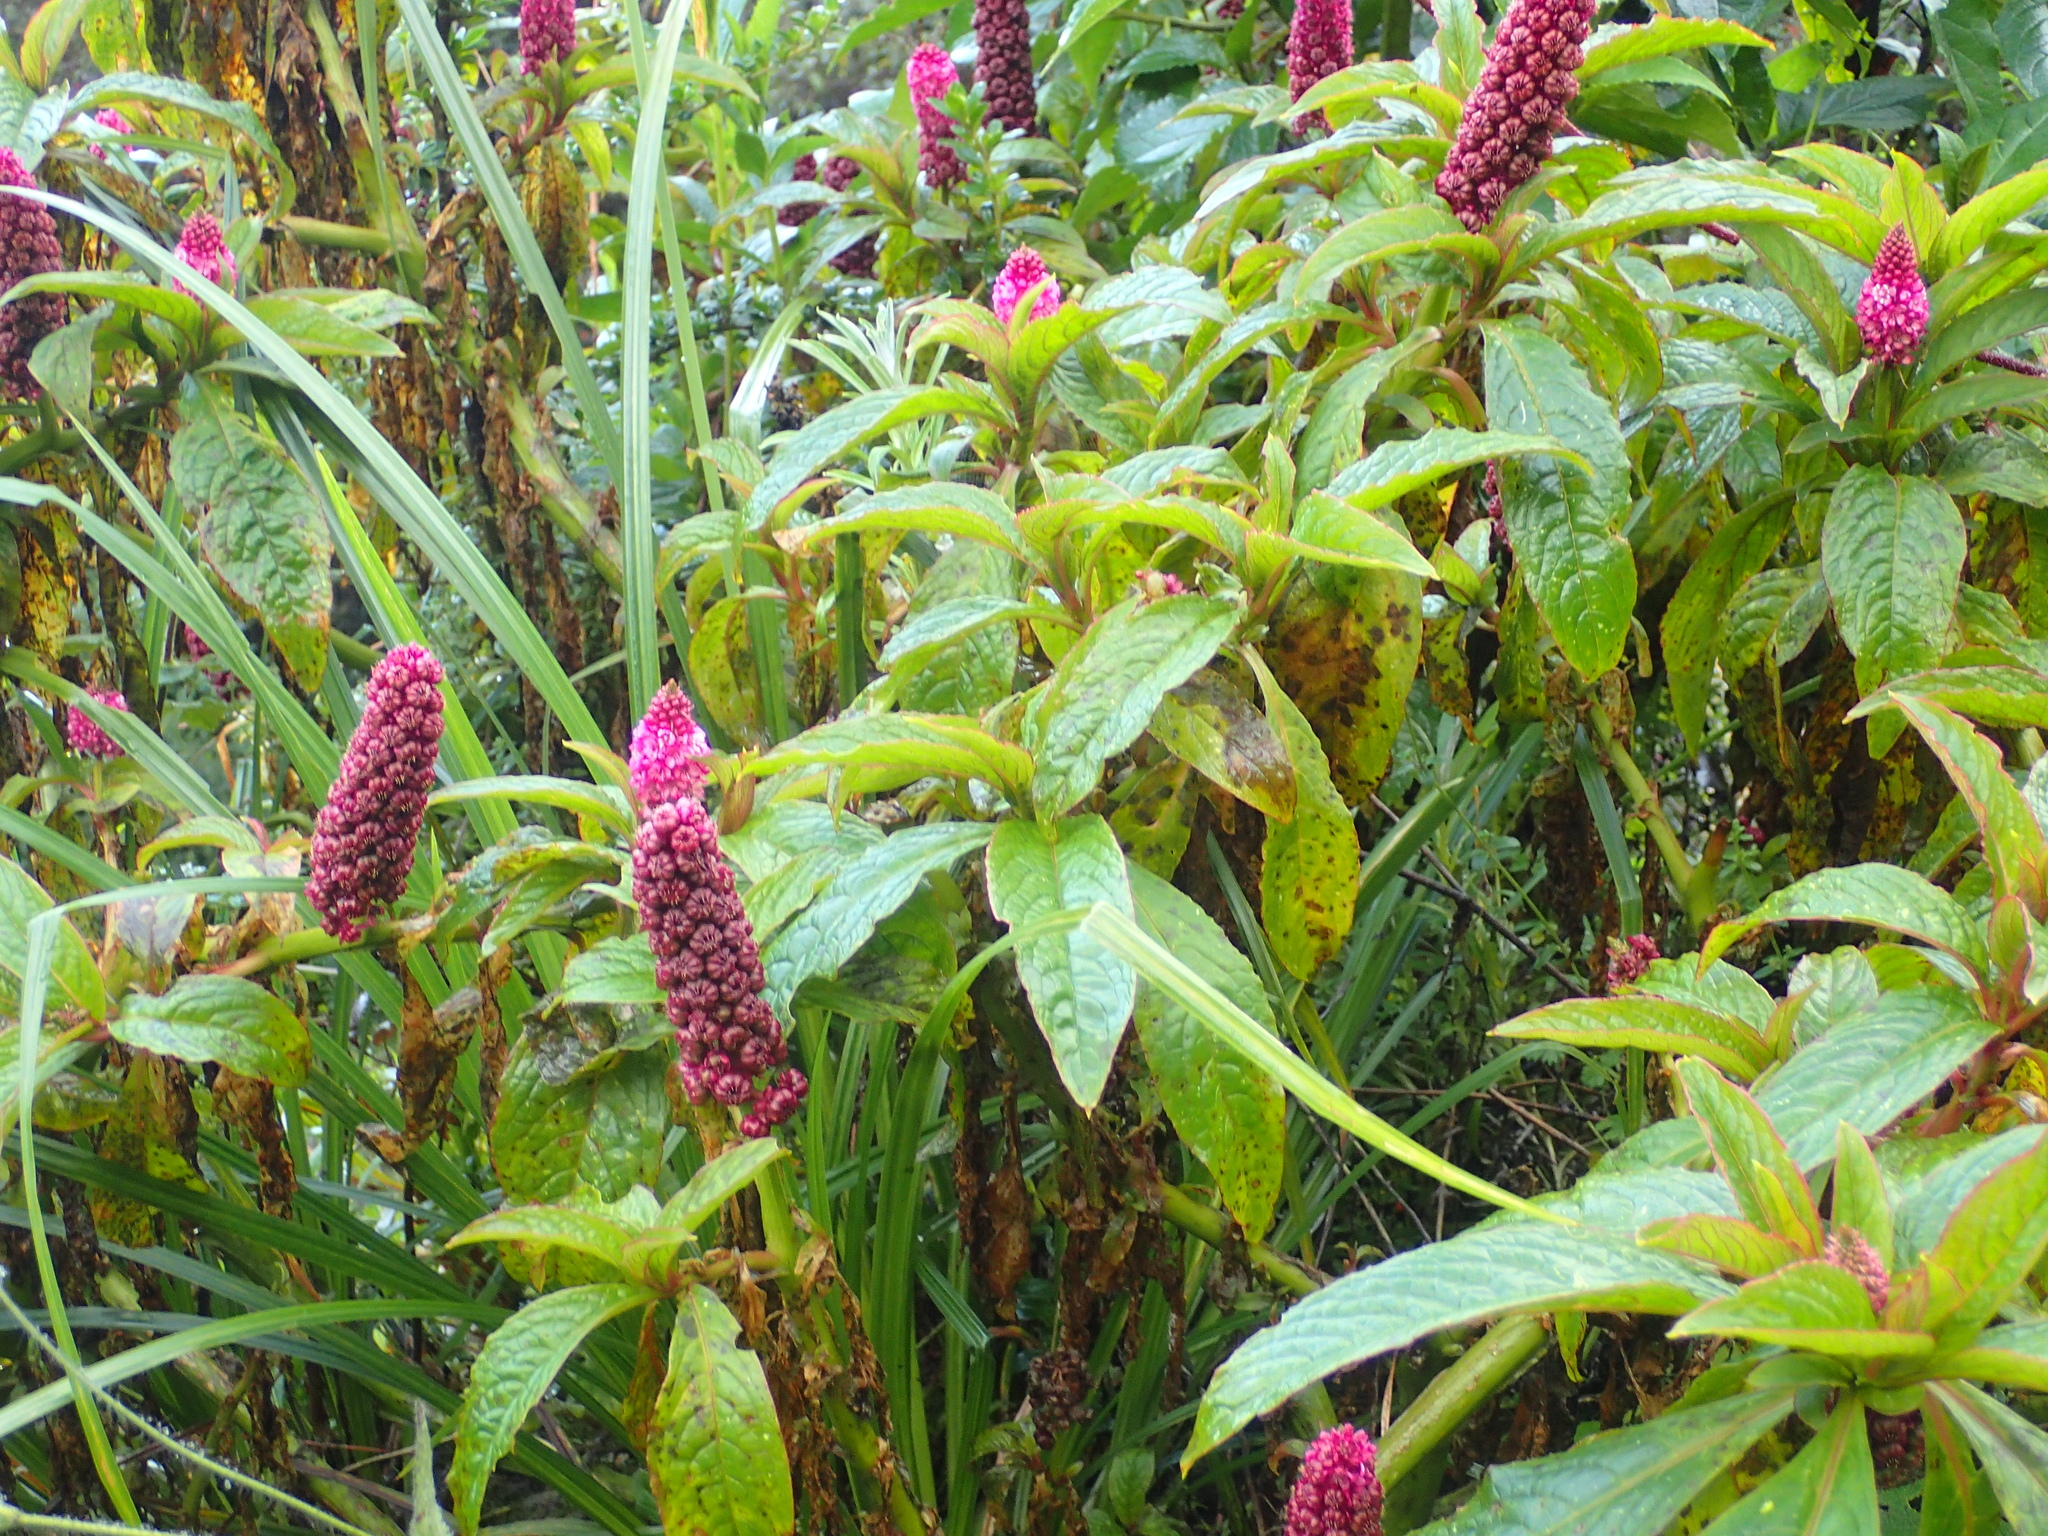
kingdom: Plantae
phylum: Tracheophyta
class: Magnoliopsida
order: Caryophyllales
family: Phytolaccaceae
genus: Phytolacca
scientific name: Phytolacca bogotensis
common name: Southern pokeweed
